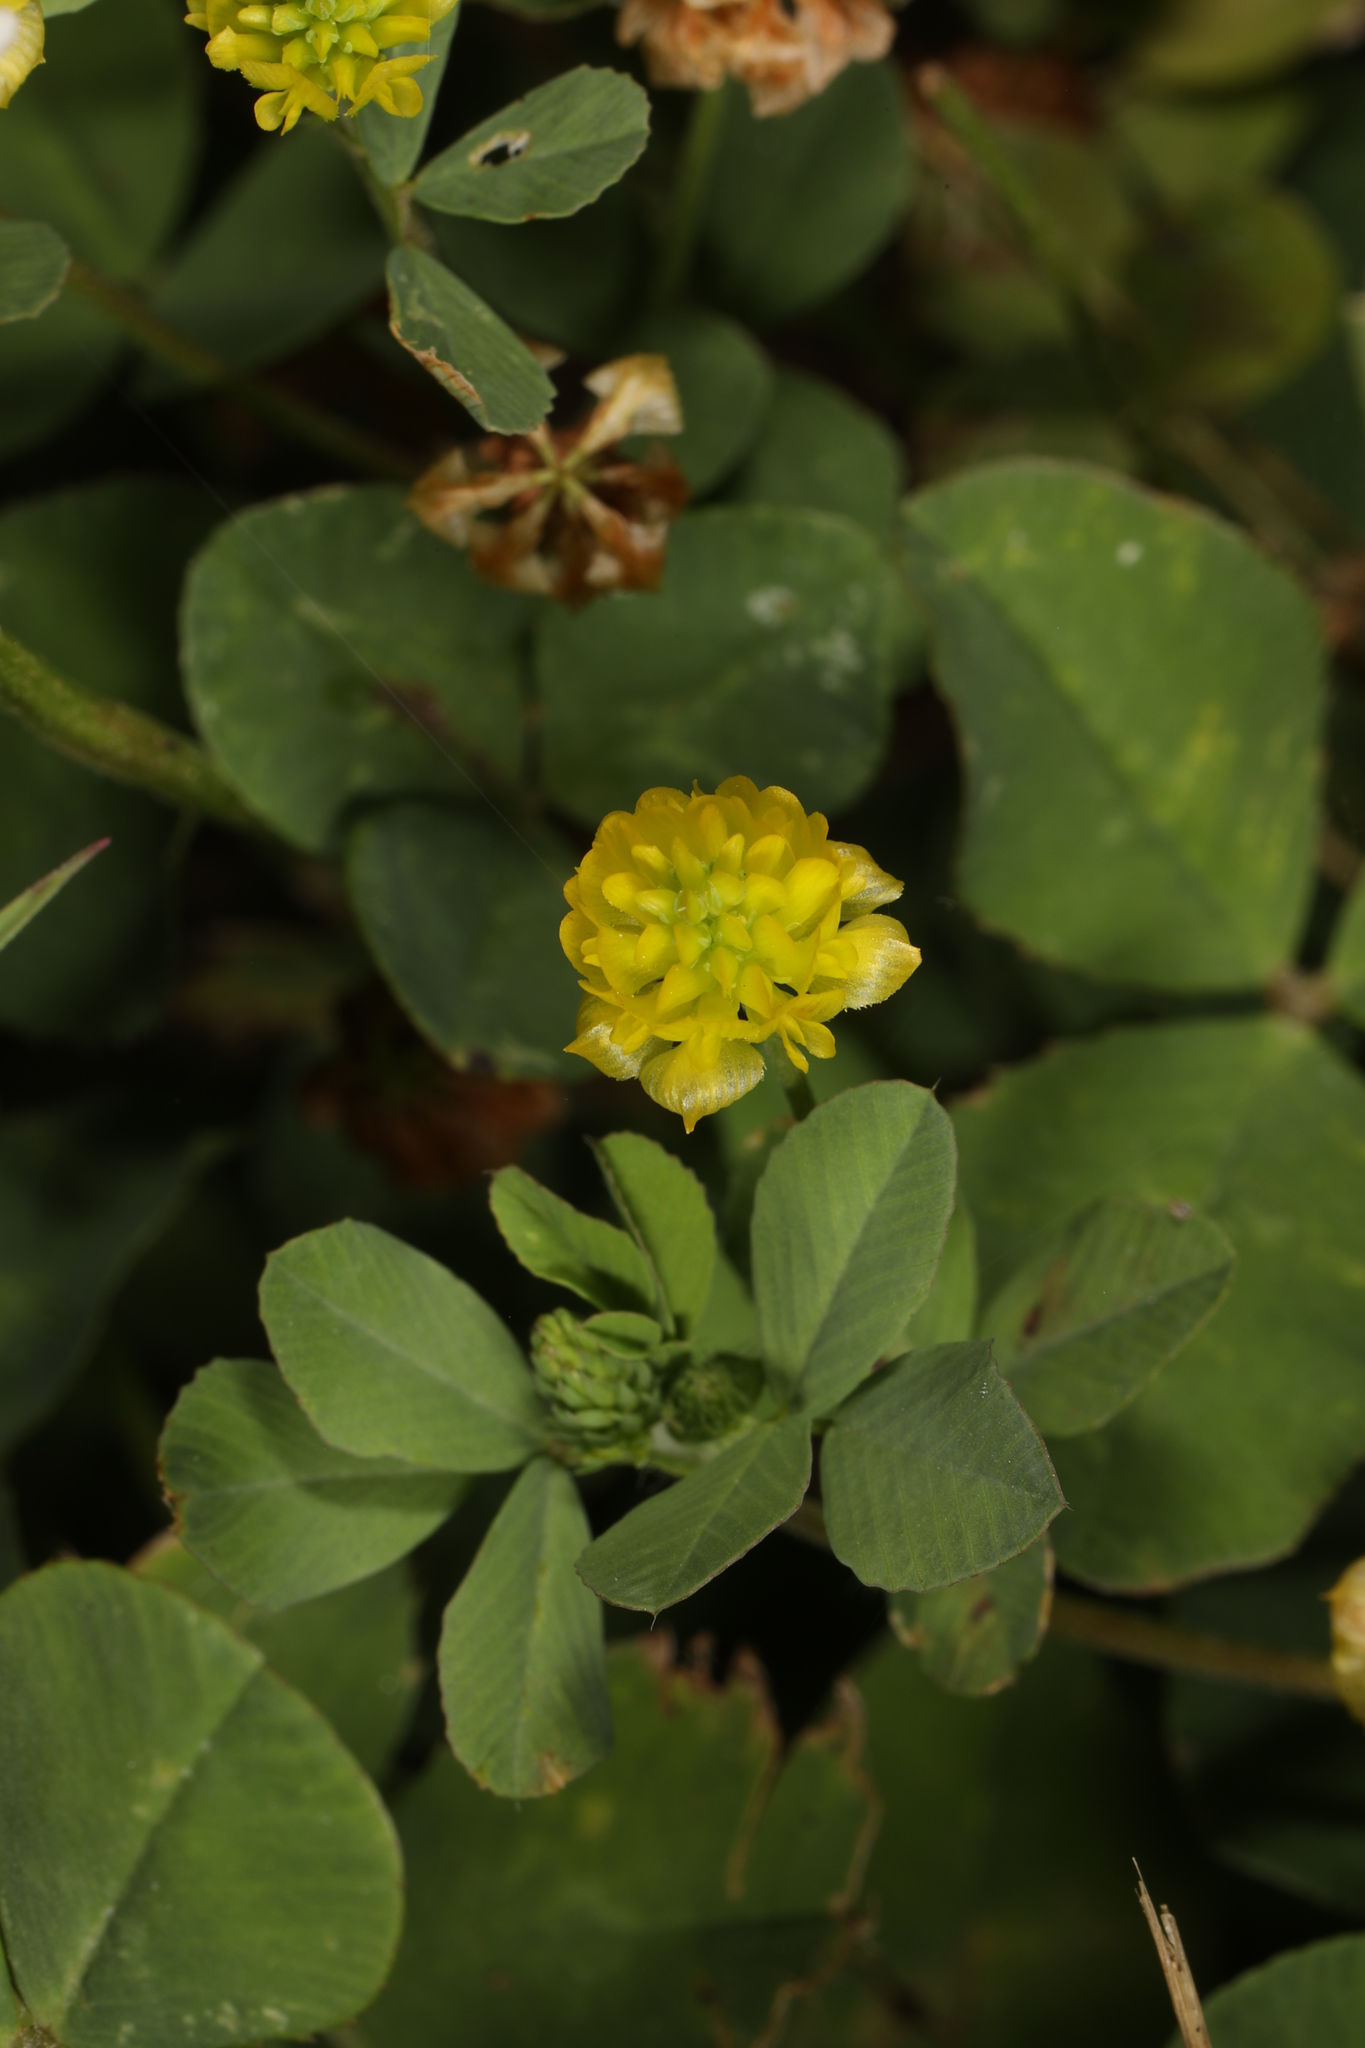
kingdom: Plantae
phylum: Tracheophyta
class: Magnoliopsida
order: Fabales
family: Fabaceae
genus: Trifolium
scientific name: Trifolium campestre
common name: Field clover
